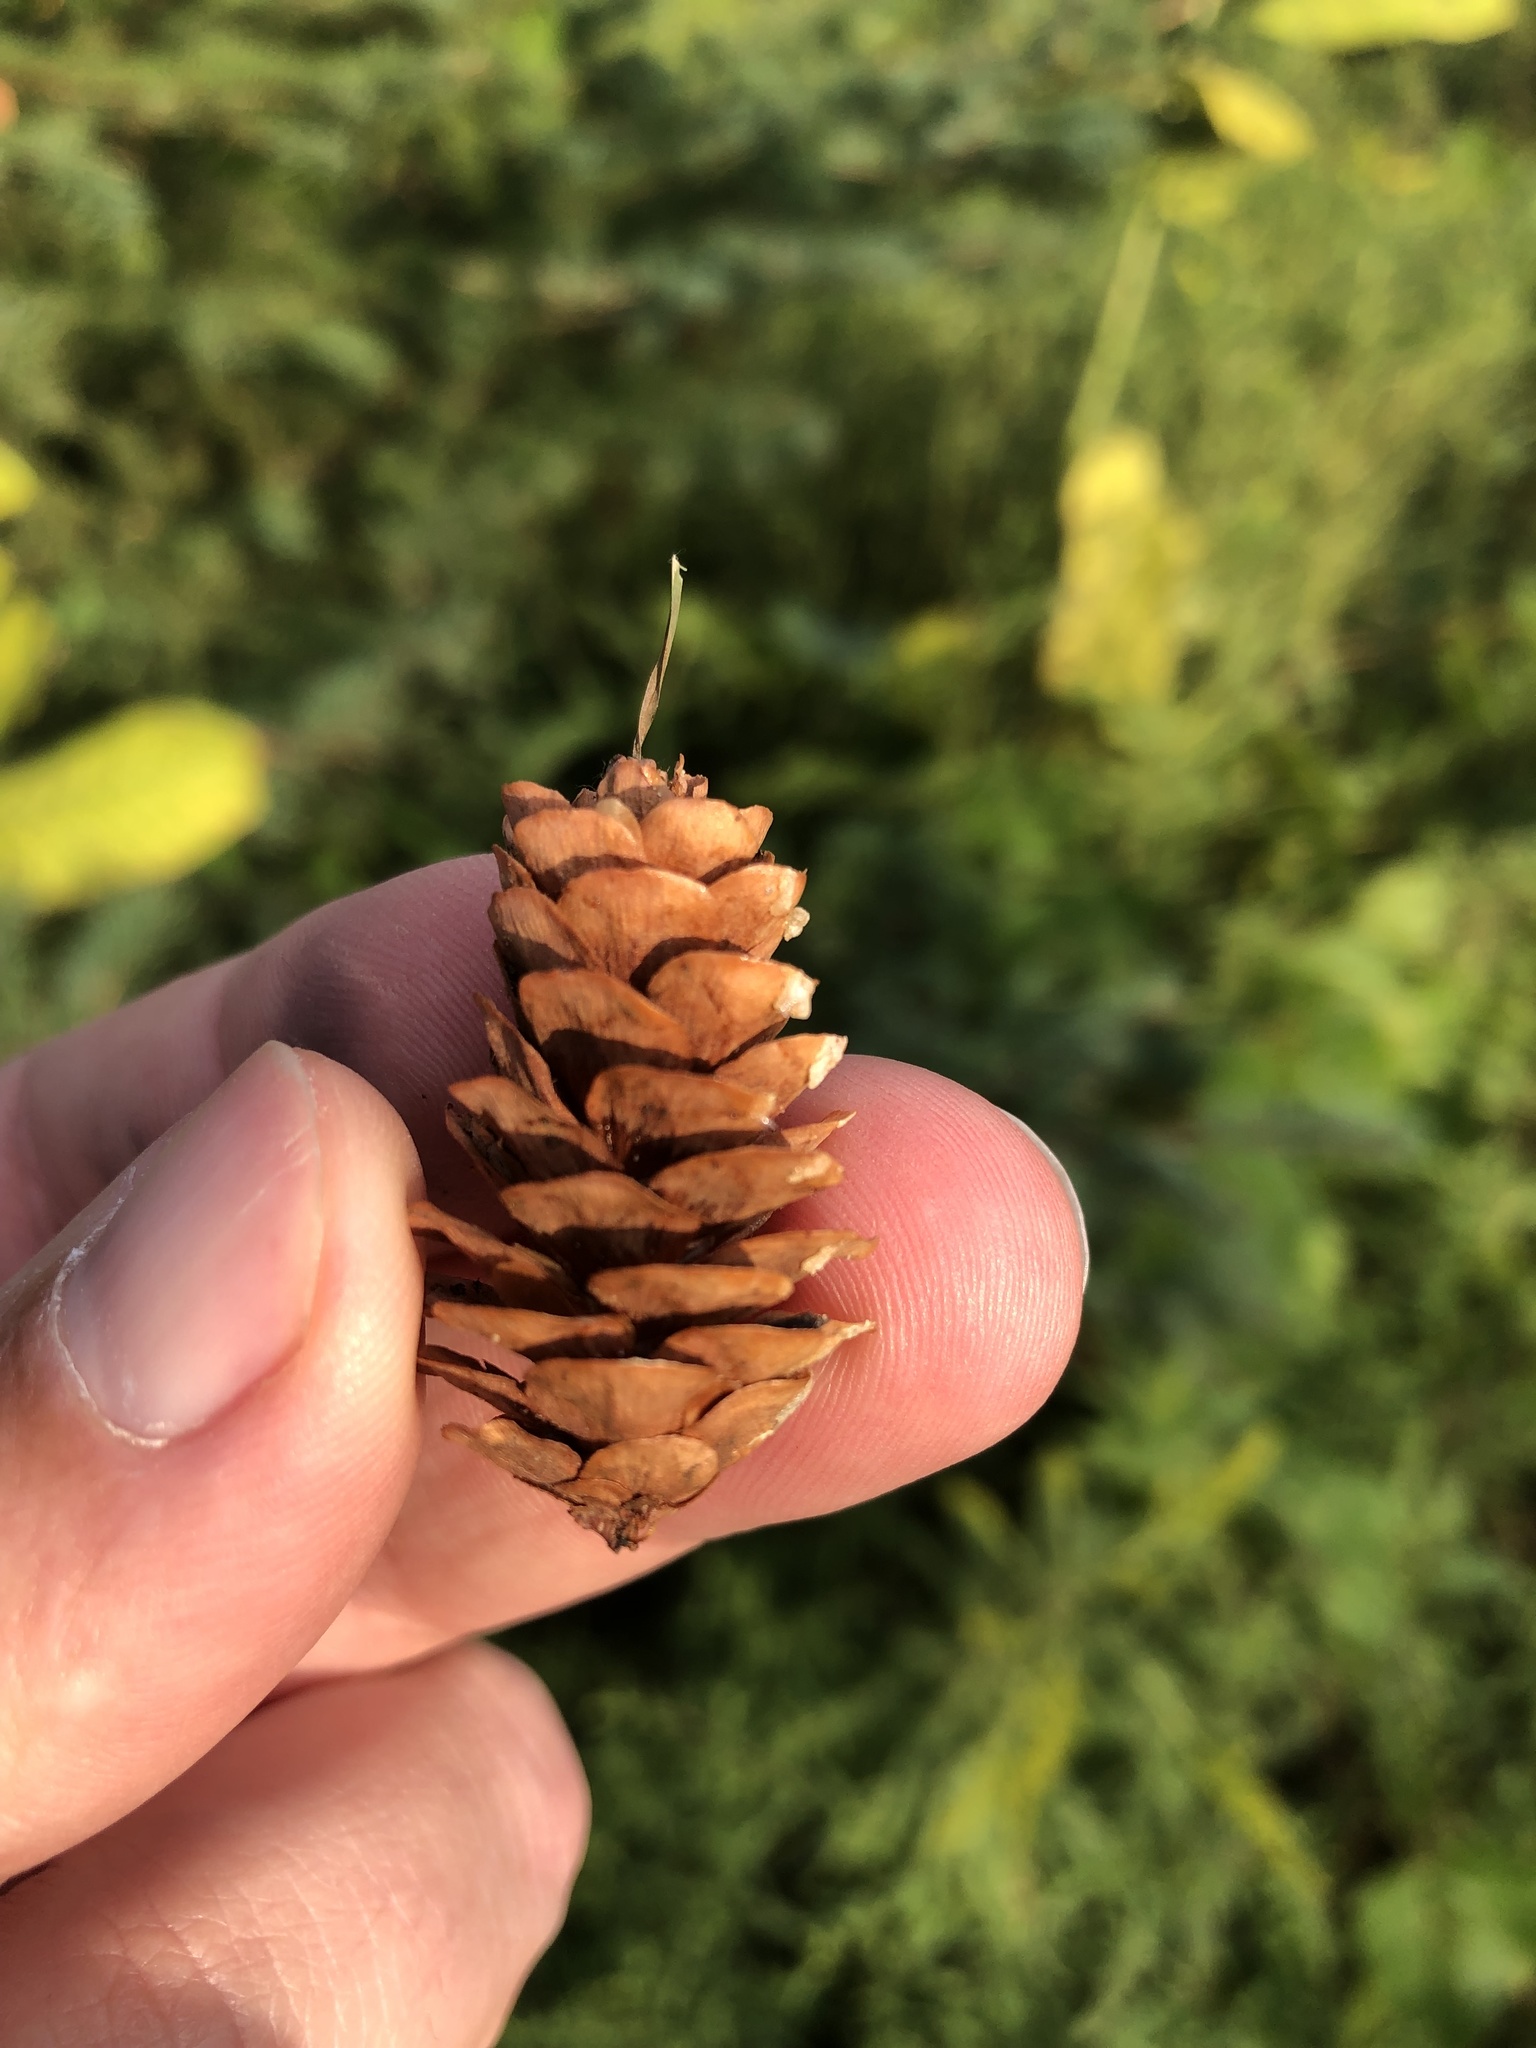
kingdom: Plantae
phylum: Tracheophyta
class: Pinopsida
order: Pinales
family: Pinaceae
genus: Picea
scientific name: Picea glauca
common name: White spruce
